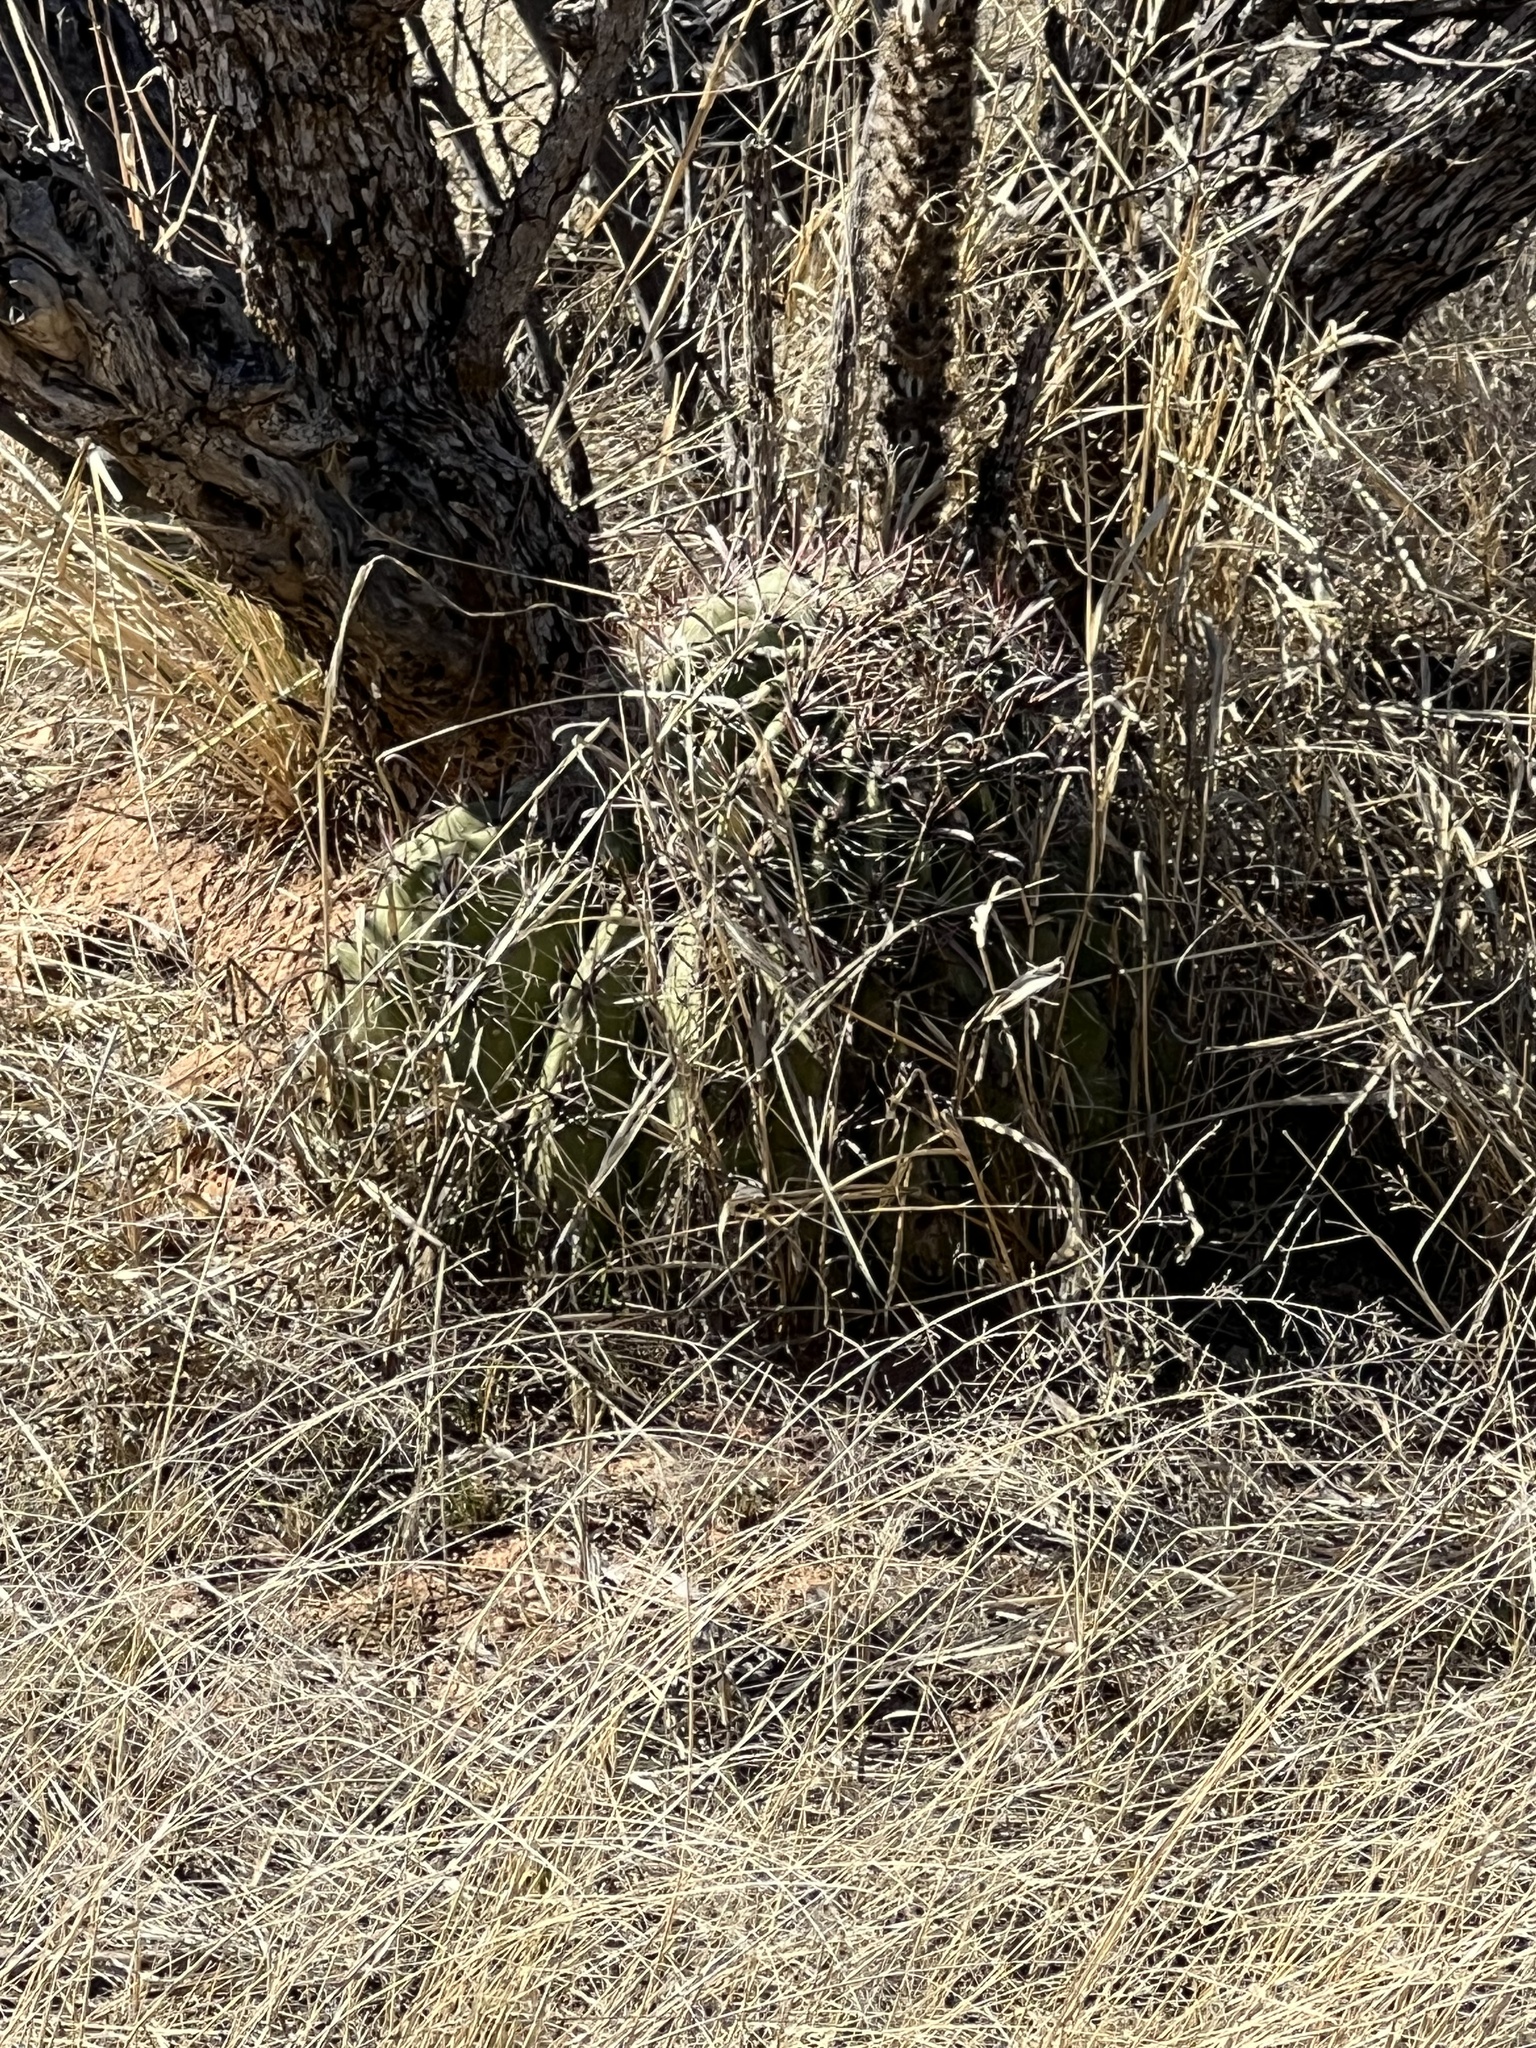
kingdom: Plantae
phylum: Tracheophyta
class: Magnoliopsida
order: Caryophyllales
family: Cactaceae
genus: Ferocactus
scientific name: Ferocactus wislizeni
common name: Candy barrel cactus
